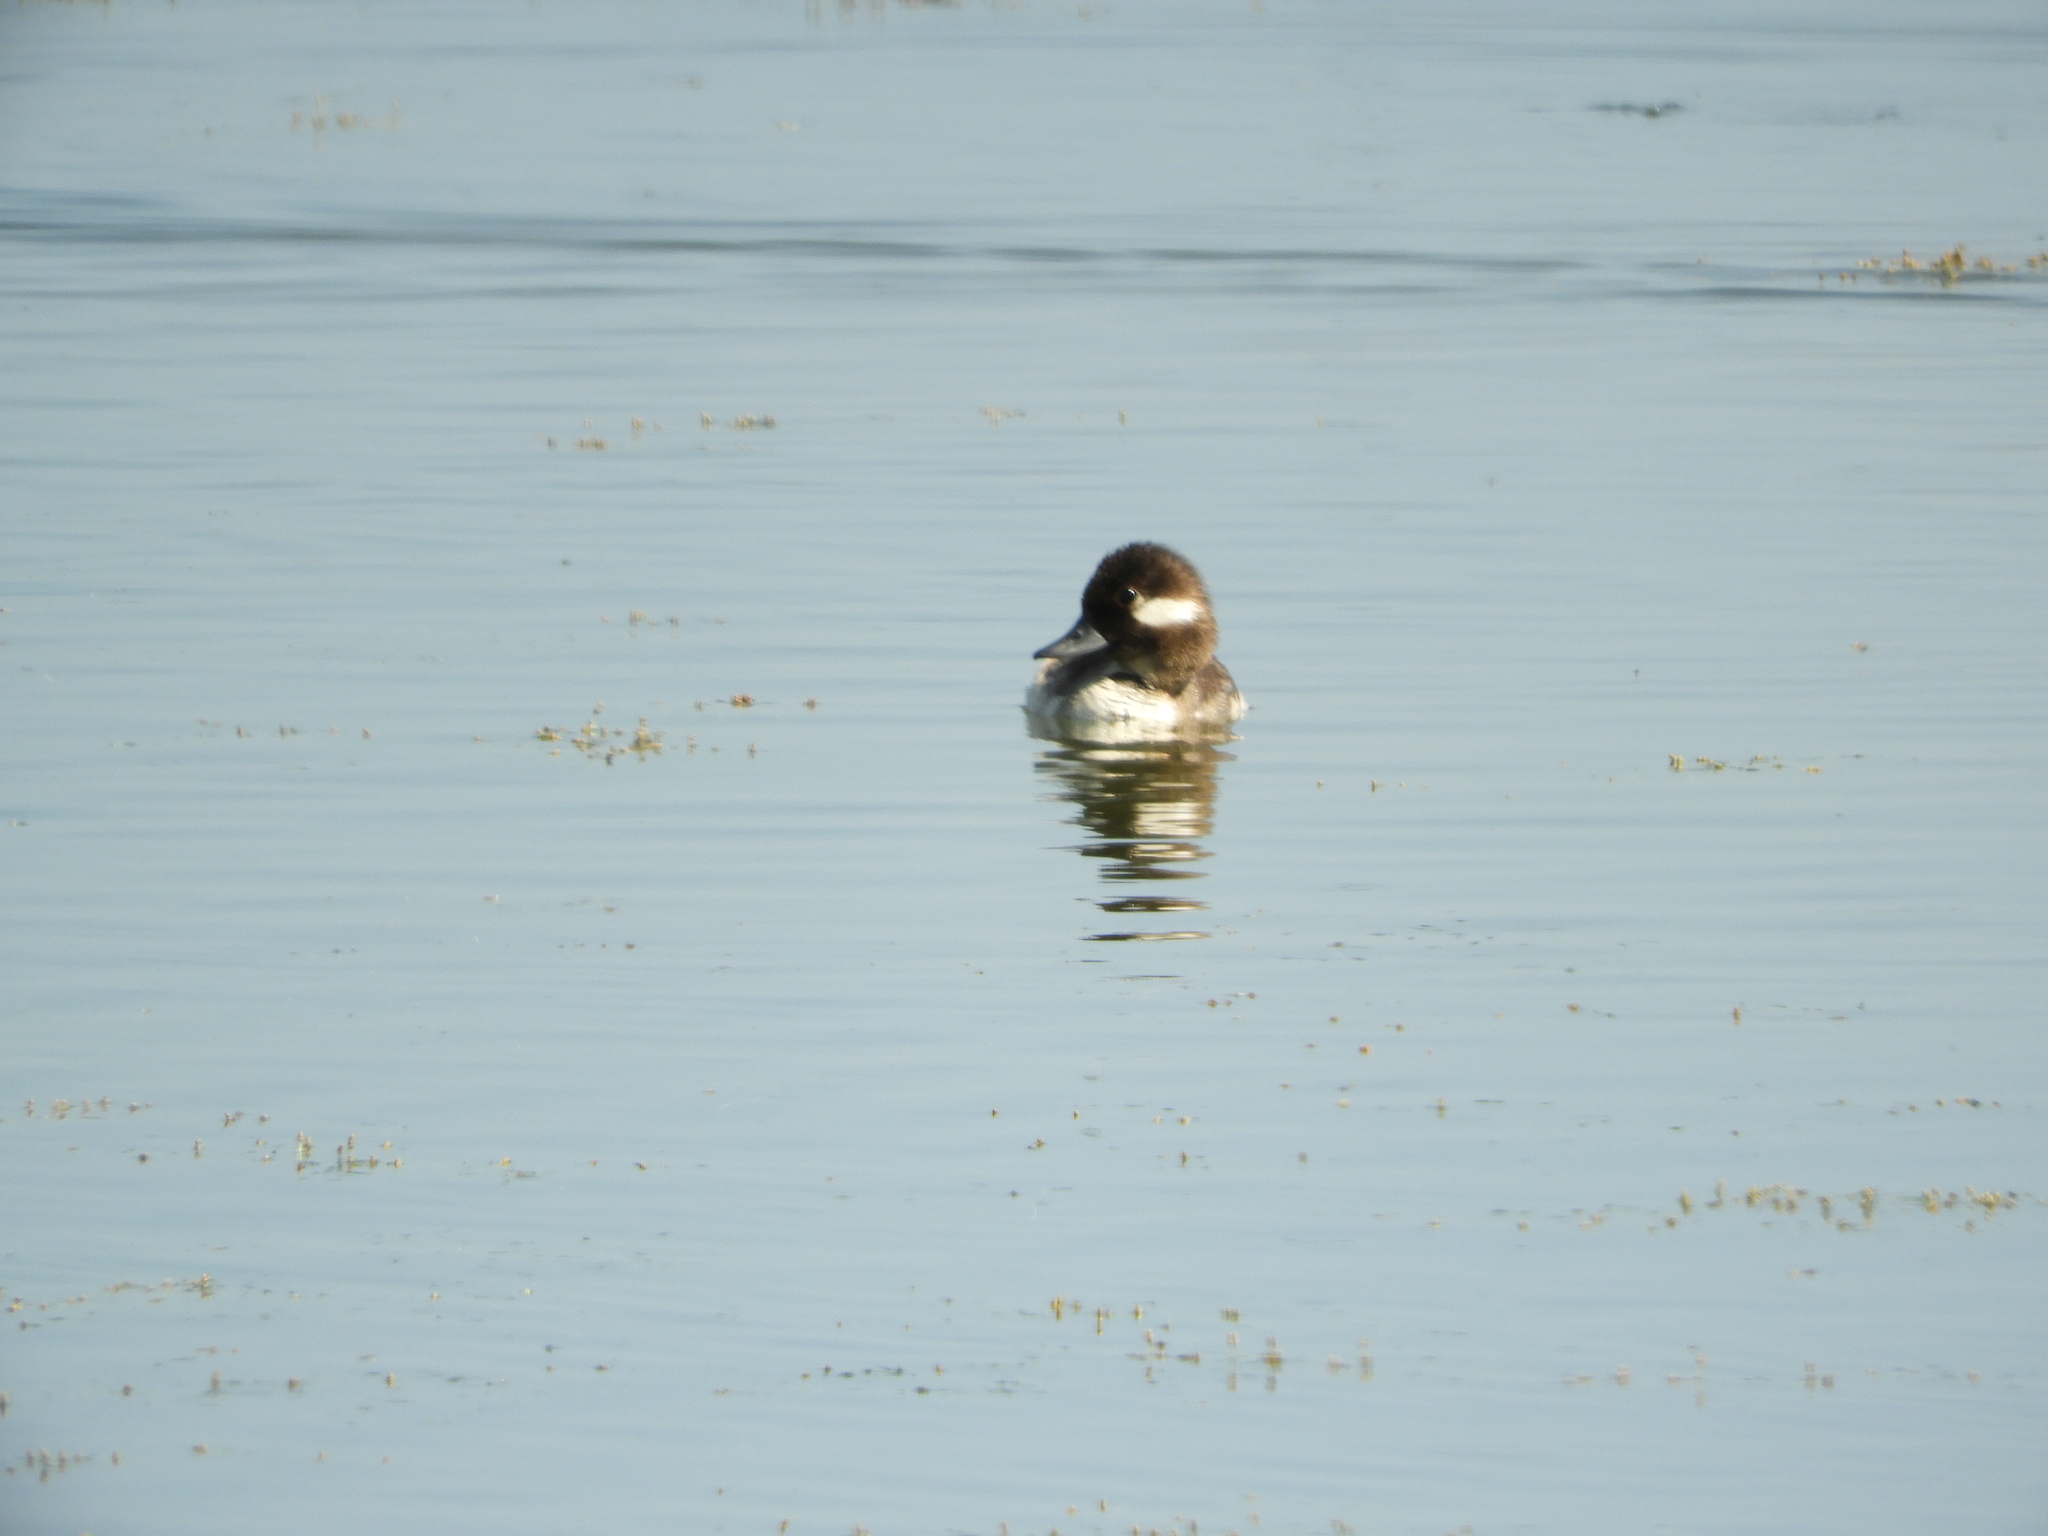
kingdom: Animalia
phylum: Chordata
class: Aves
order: Anseriformes
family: Anatidae
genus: Bucephala
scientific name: Bucephala albeola
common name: Bufflehead
